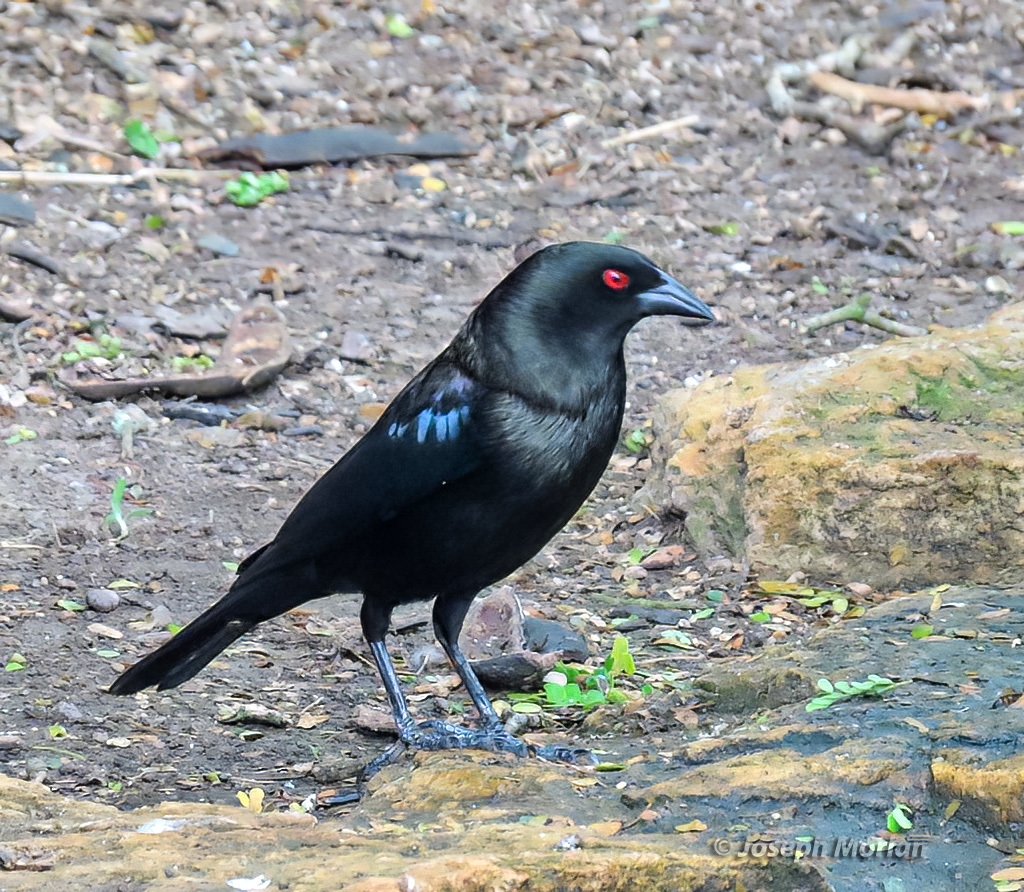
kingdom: Animalia
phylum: Chordata
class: Aves
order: Passeriformes
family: Icteridae
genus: Molothrus
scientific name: Molothrus aeneus
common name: Bronzed cowbird
